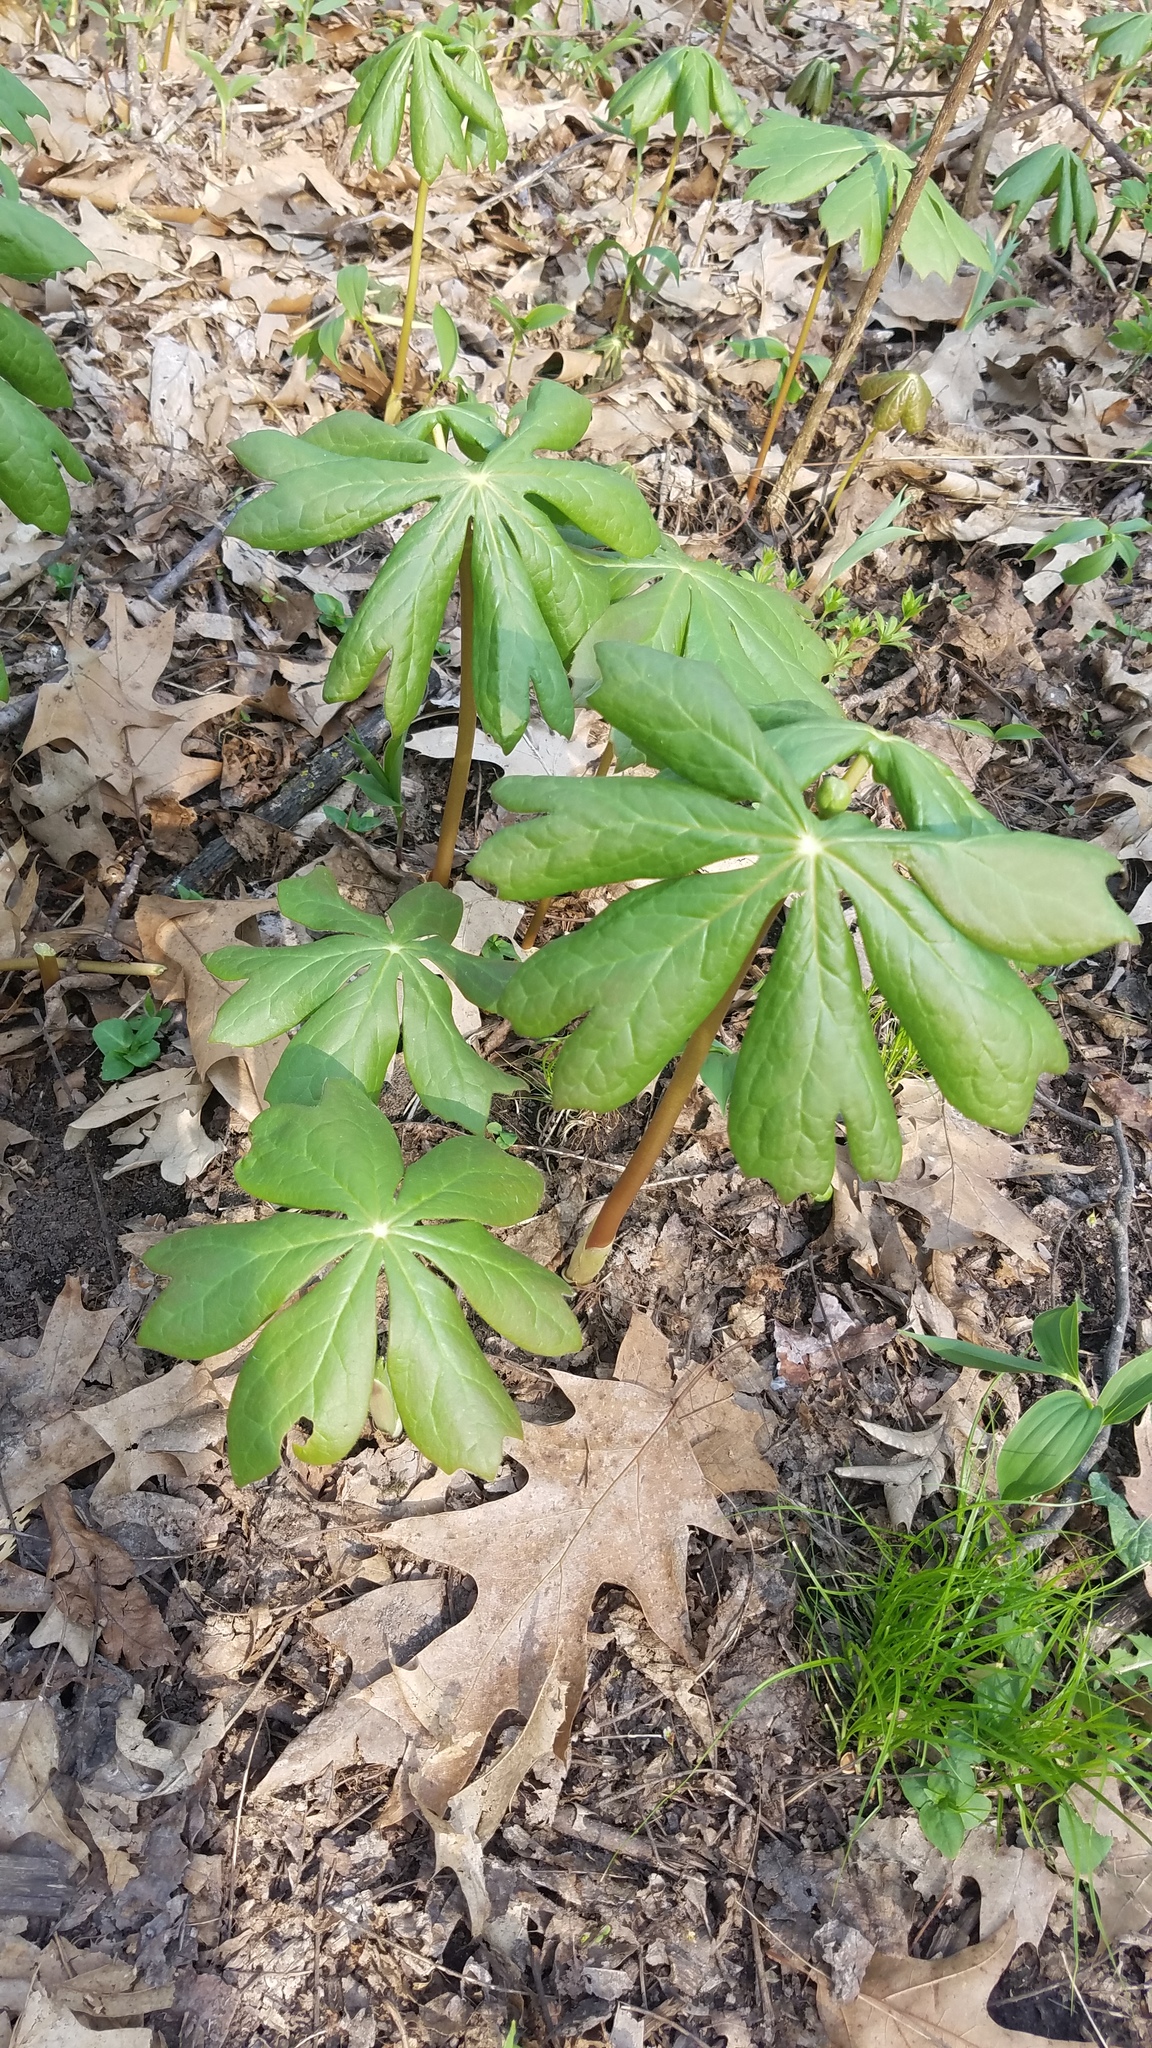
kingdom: Plantae
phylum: Tracheophyta
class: Magnoliopsida
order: Ranunculales
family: Berberidaceae
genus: Podophyllum
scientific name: Podophyllum peltatum
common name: Wild mandrake
